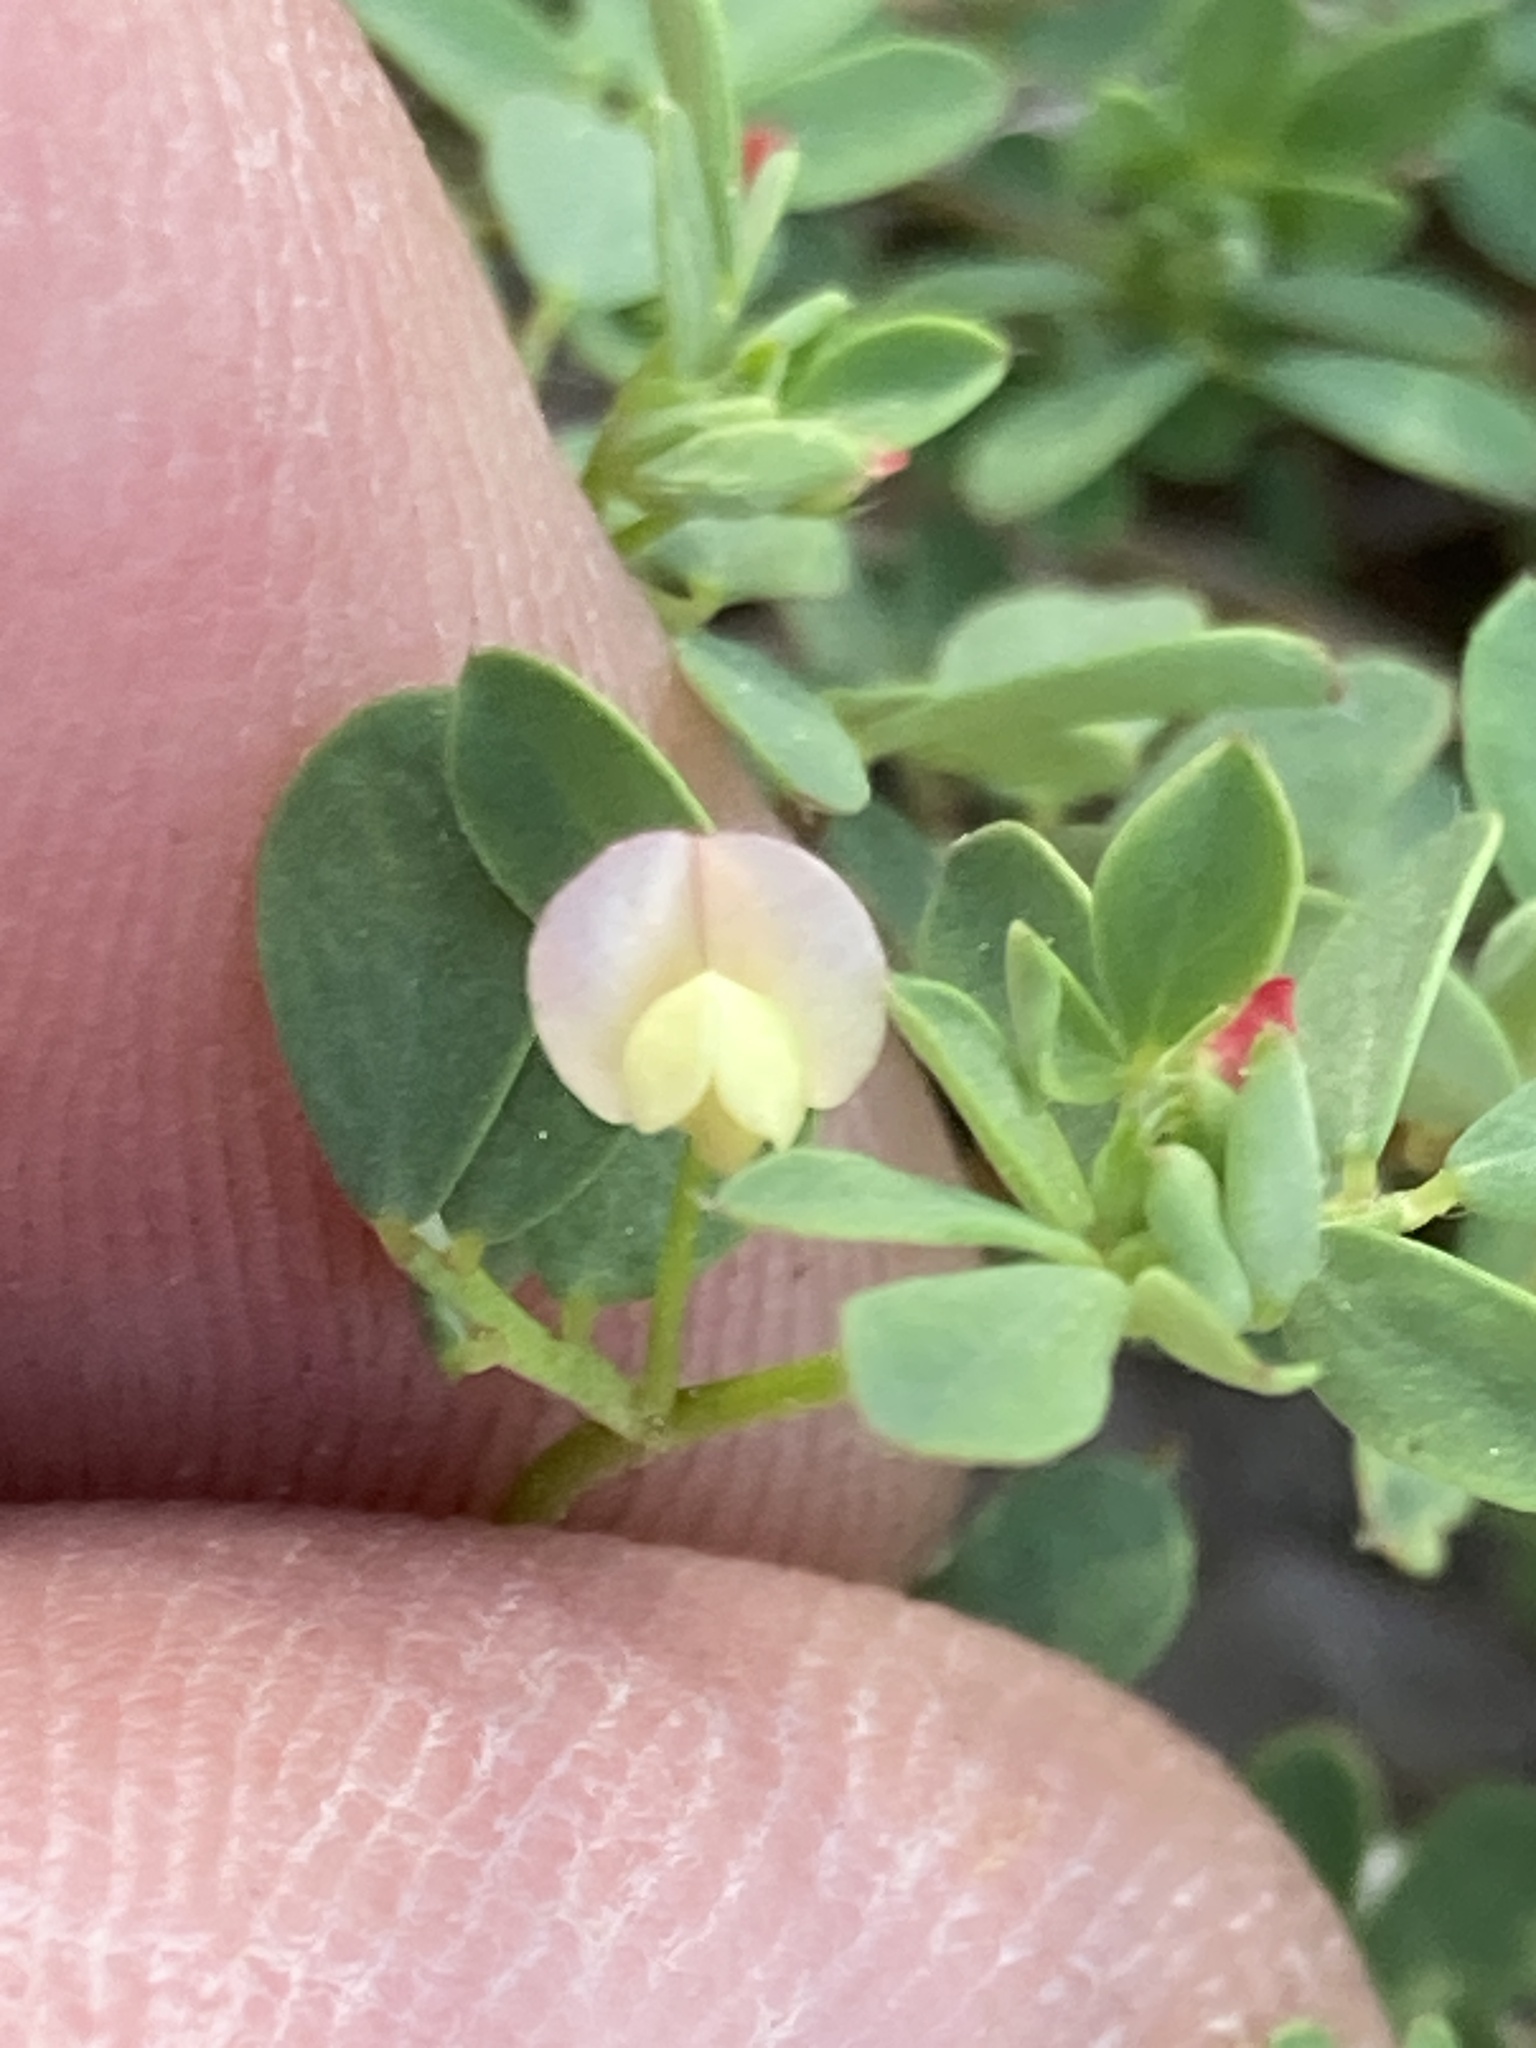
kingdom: Plantae
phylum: Tracheophyta
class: Magnoliopsida
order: Fabales
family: Fabaceae
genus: Acmispon
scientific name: Acmispon parviflorus
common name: Desert deer-vetch
